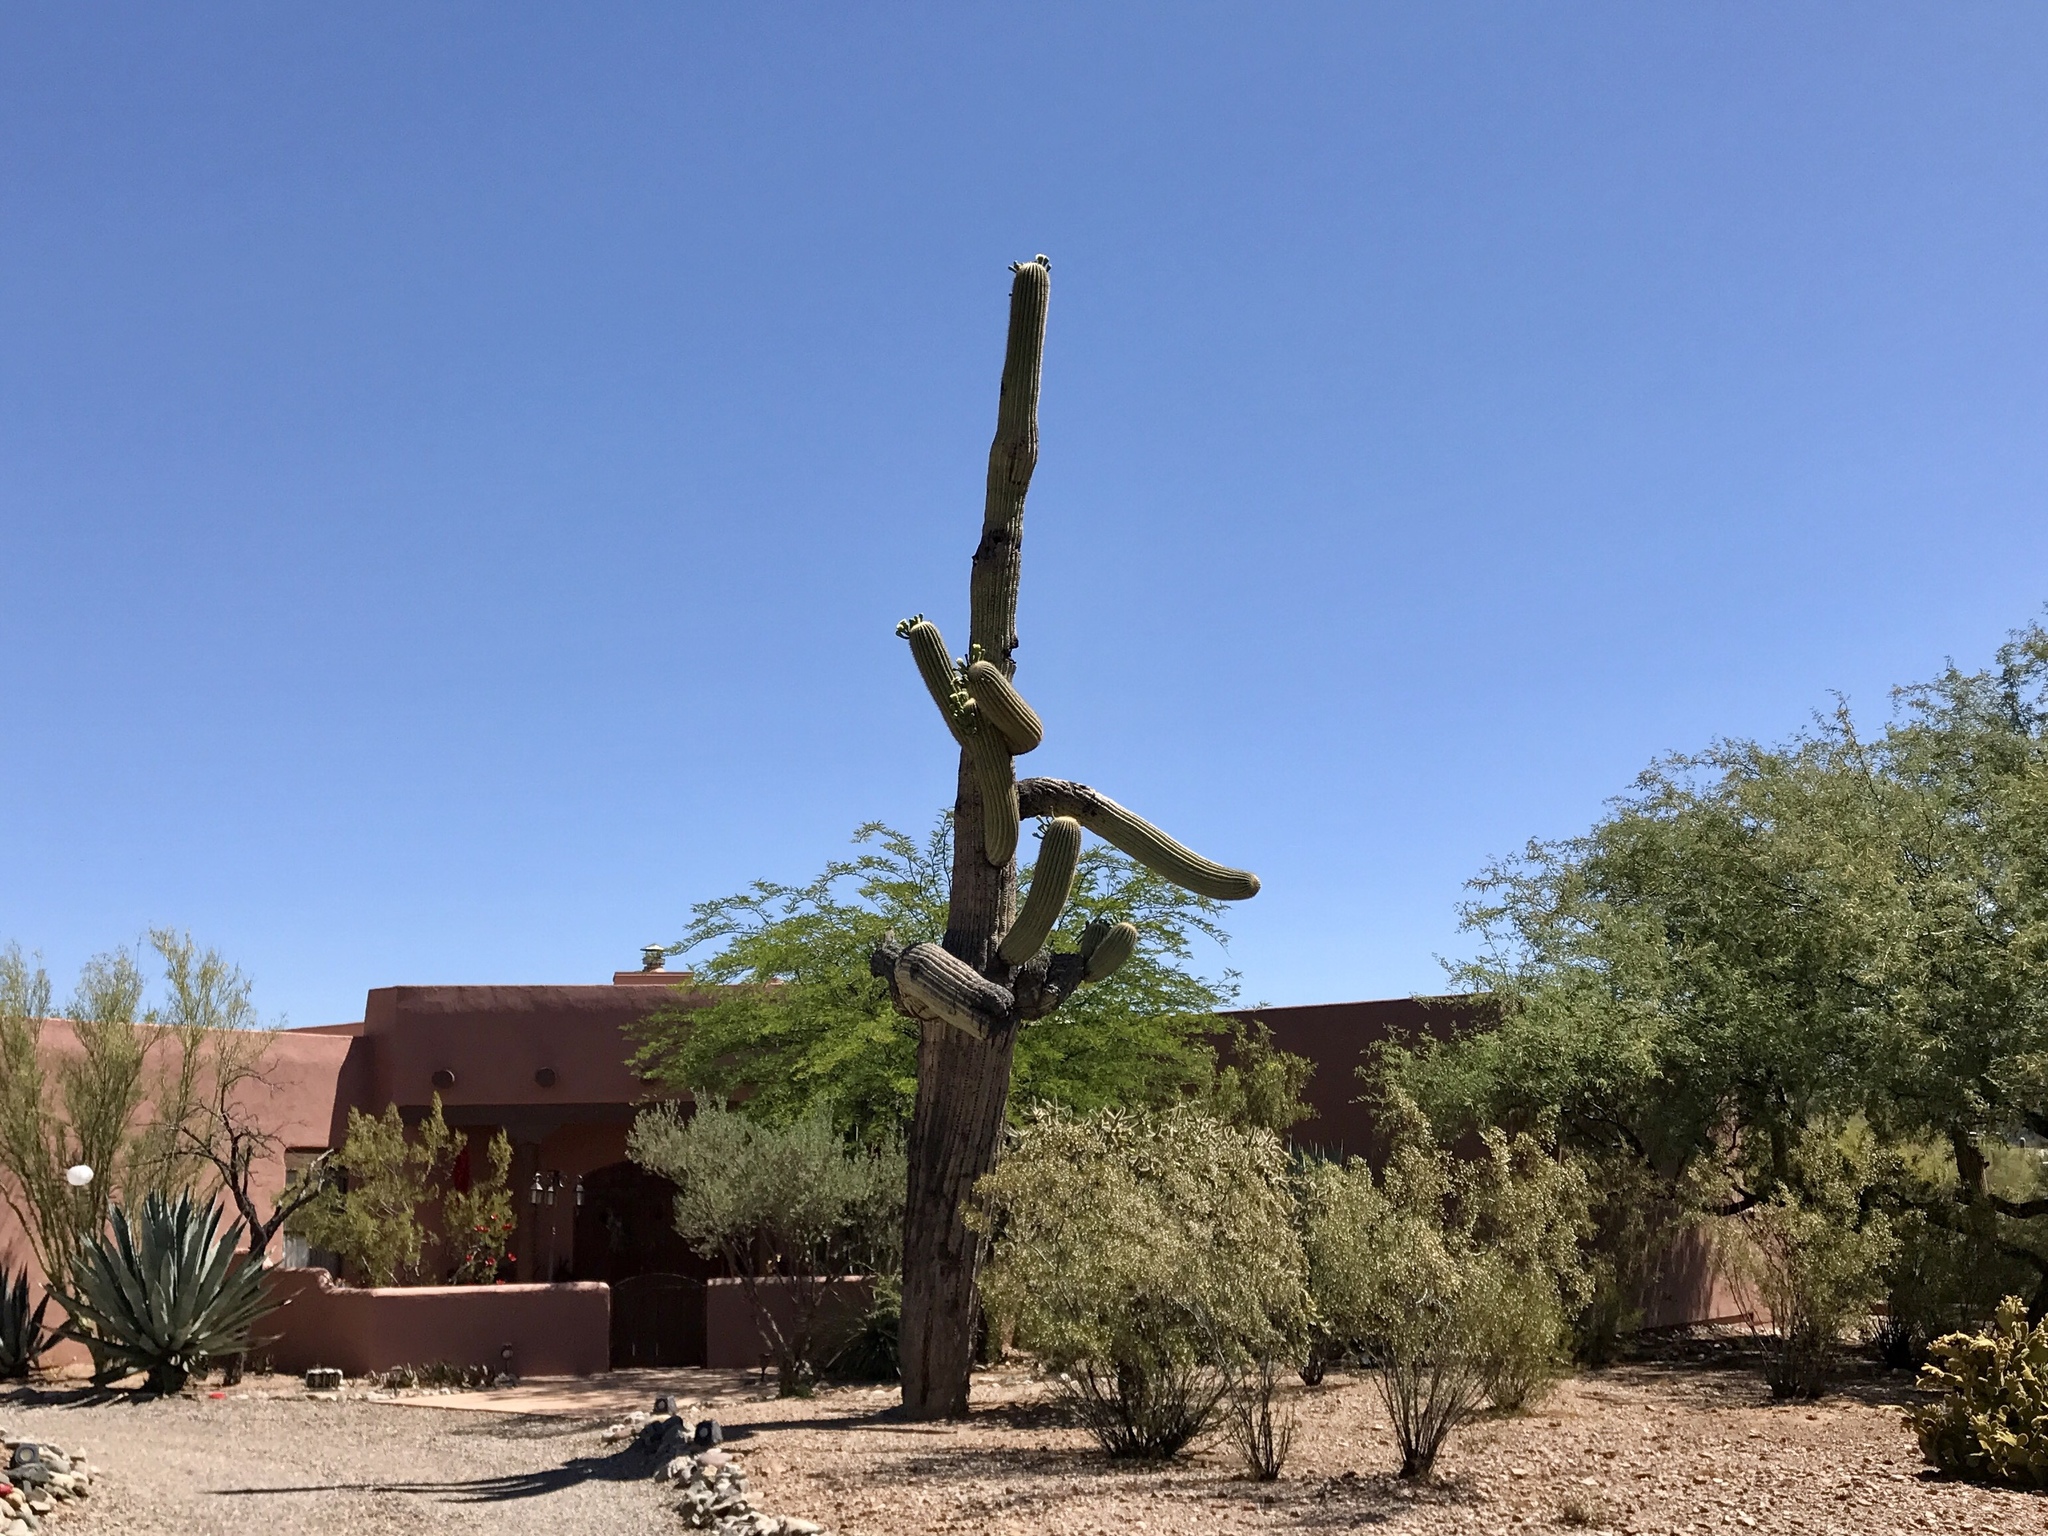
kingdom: Plantae
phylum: Tracheophyta
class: Magnoliopsida
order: Caryophyllales
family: Cactaceae
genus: Carnegiea
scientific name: Carnegiea gigantea
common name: Saguaro
